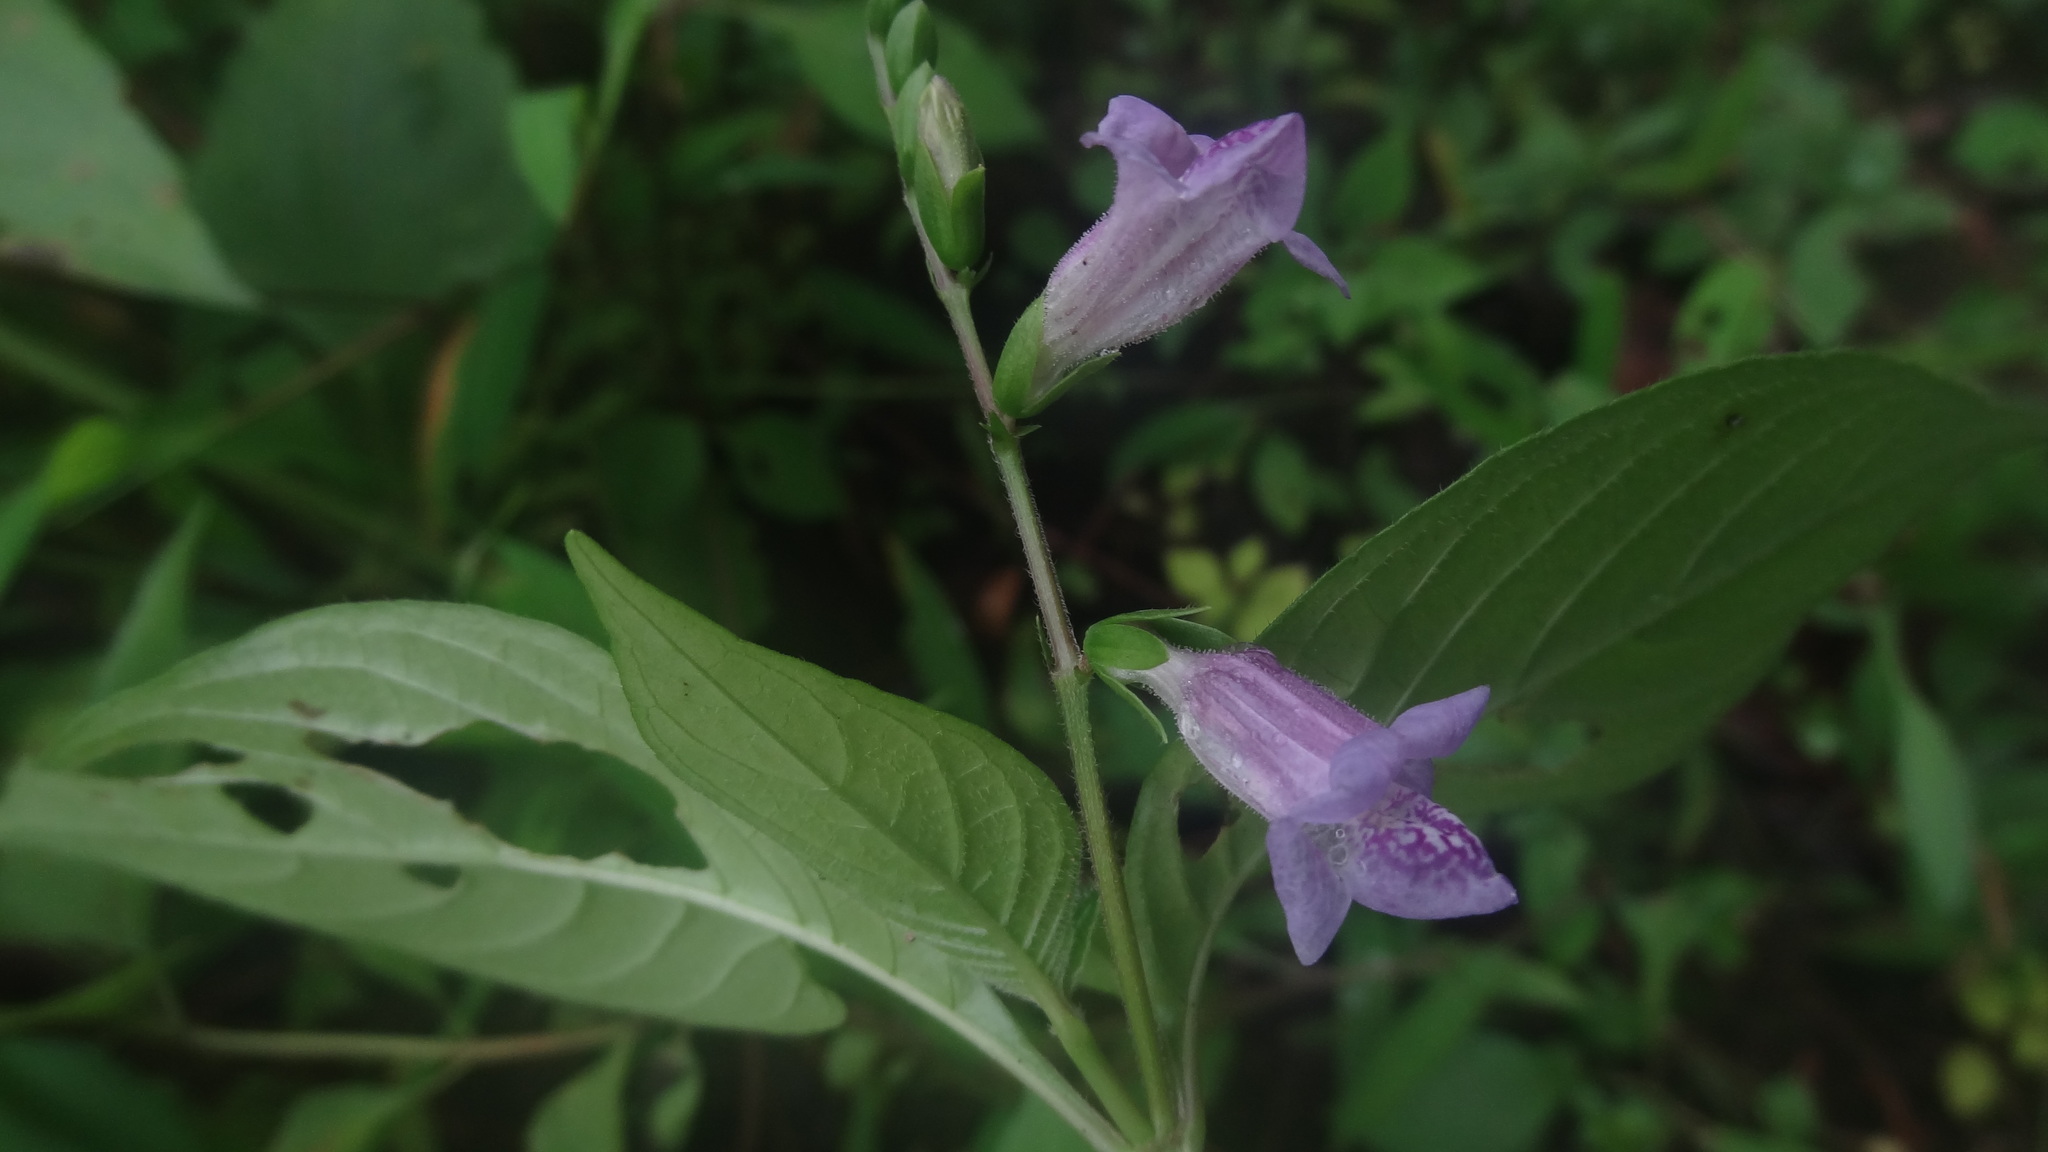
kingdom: Plantae
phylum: Tracheophyta
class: Magnoliopsida
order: Lamiales
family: Acanthaceae
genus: Asystasia
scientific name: Asystasia dalzelliana
